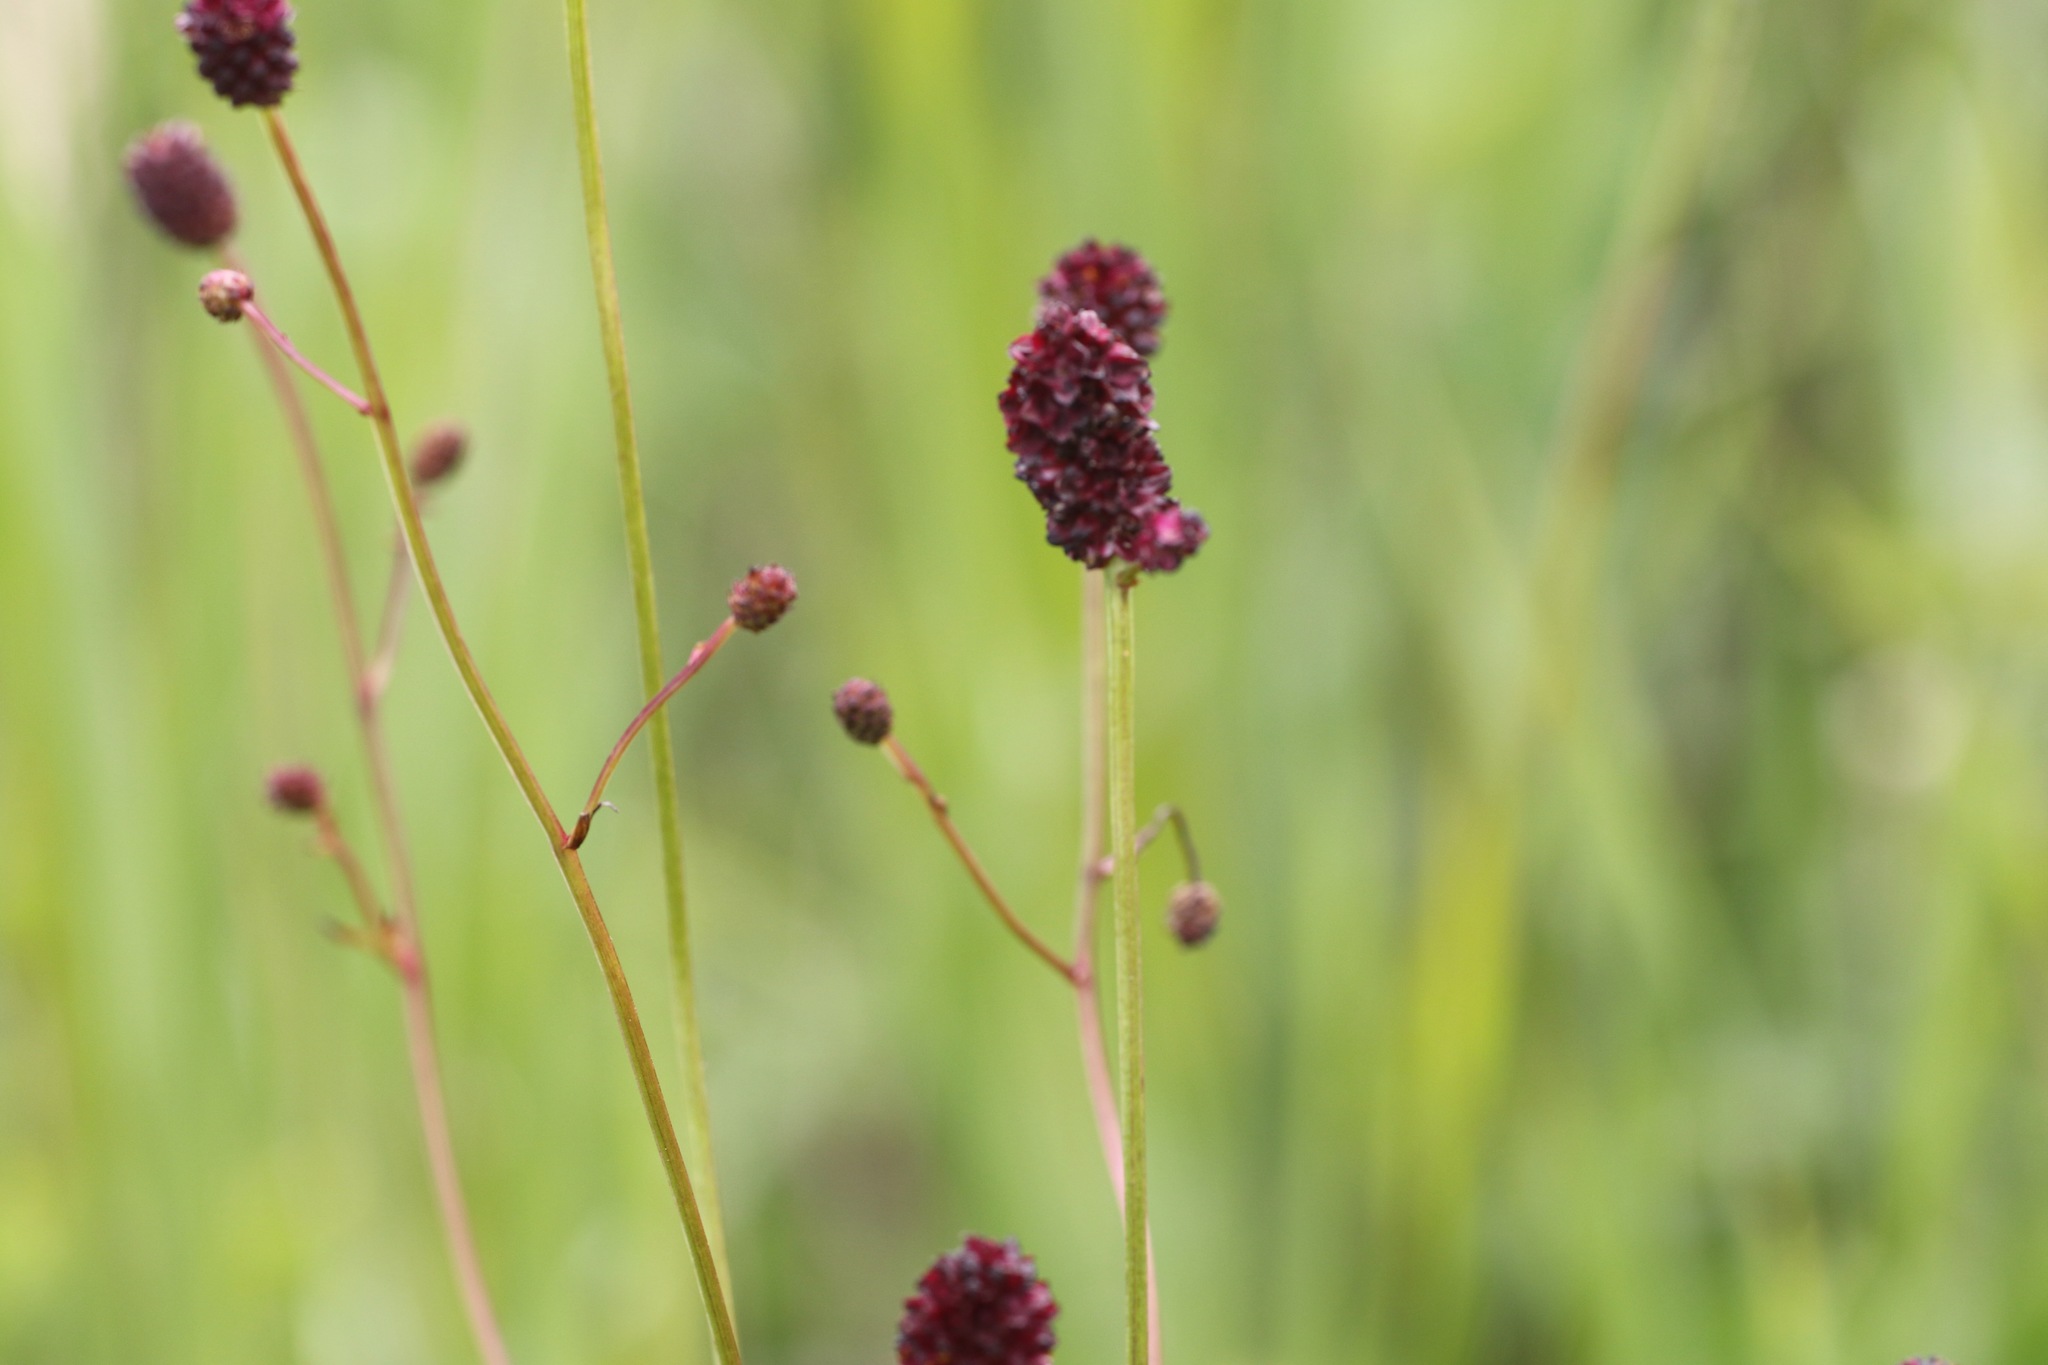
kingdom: Plantae
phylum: Tracheophyta
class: Magnoliopsida
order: Rosales
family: Rosaceae
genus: Sanguisorba
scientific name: Sanguisorba officinalis
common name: Great burnet
